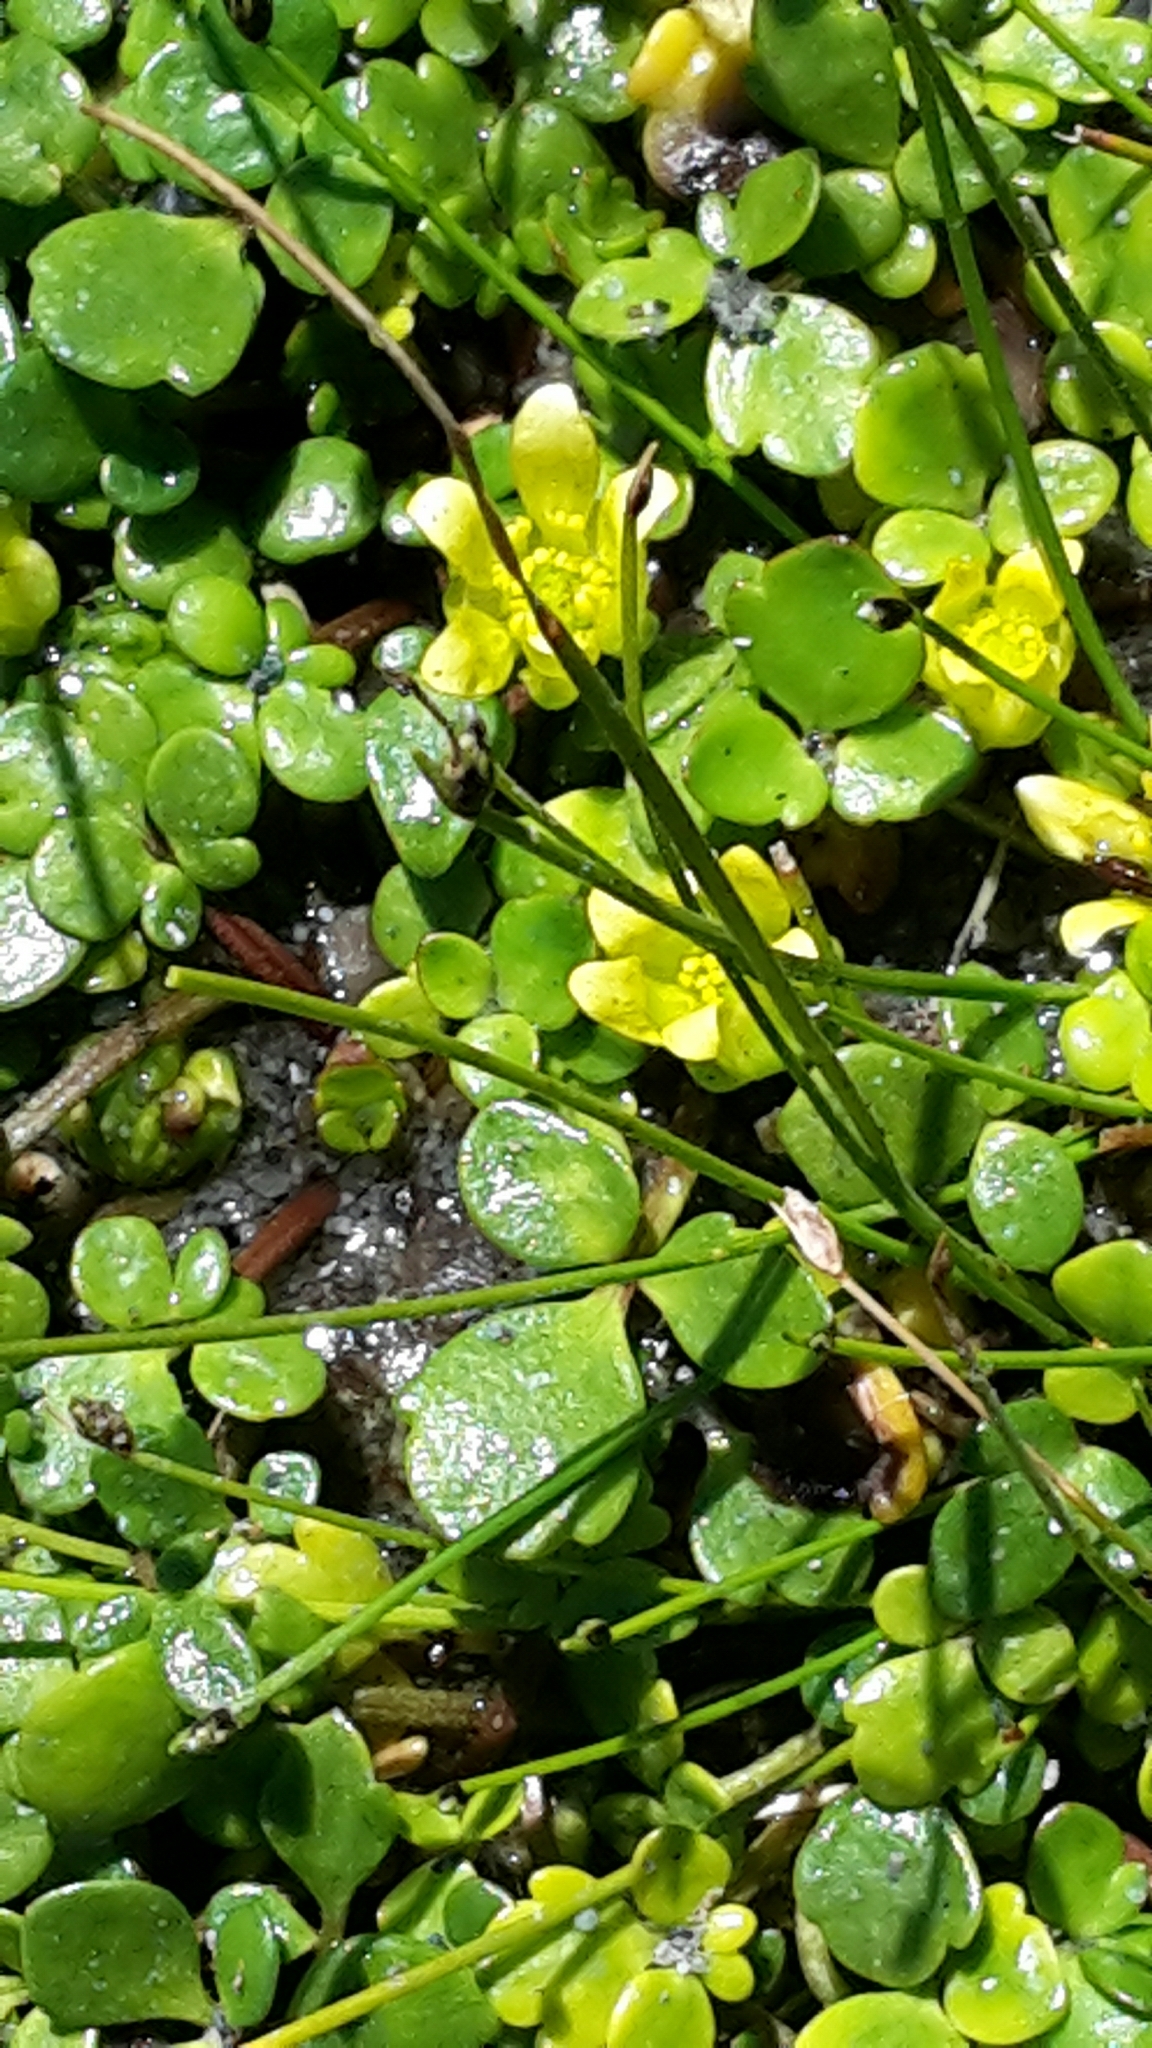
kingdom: Plantae
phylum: Tracheophyta
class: Magnoliopsida
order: Ranunculales
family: Ranunculaceae
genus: Ranunculus
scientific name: Ranunculus acaulis
